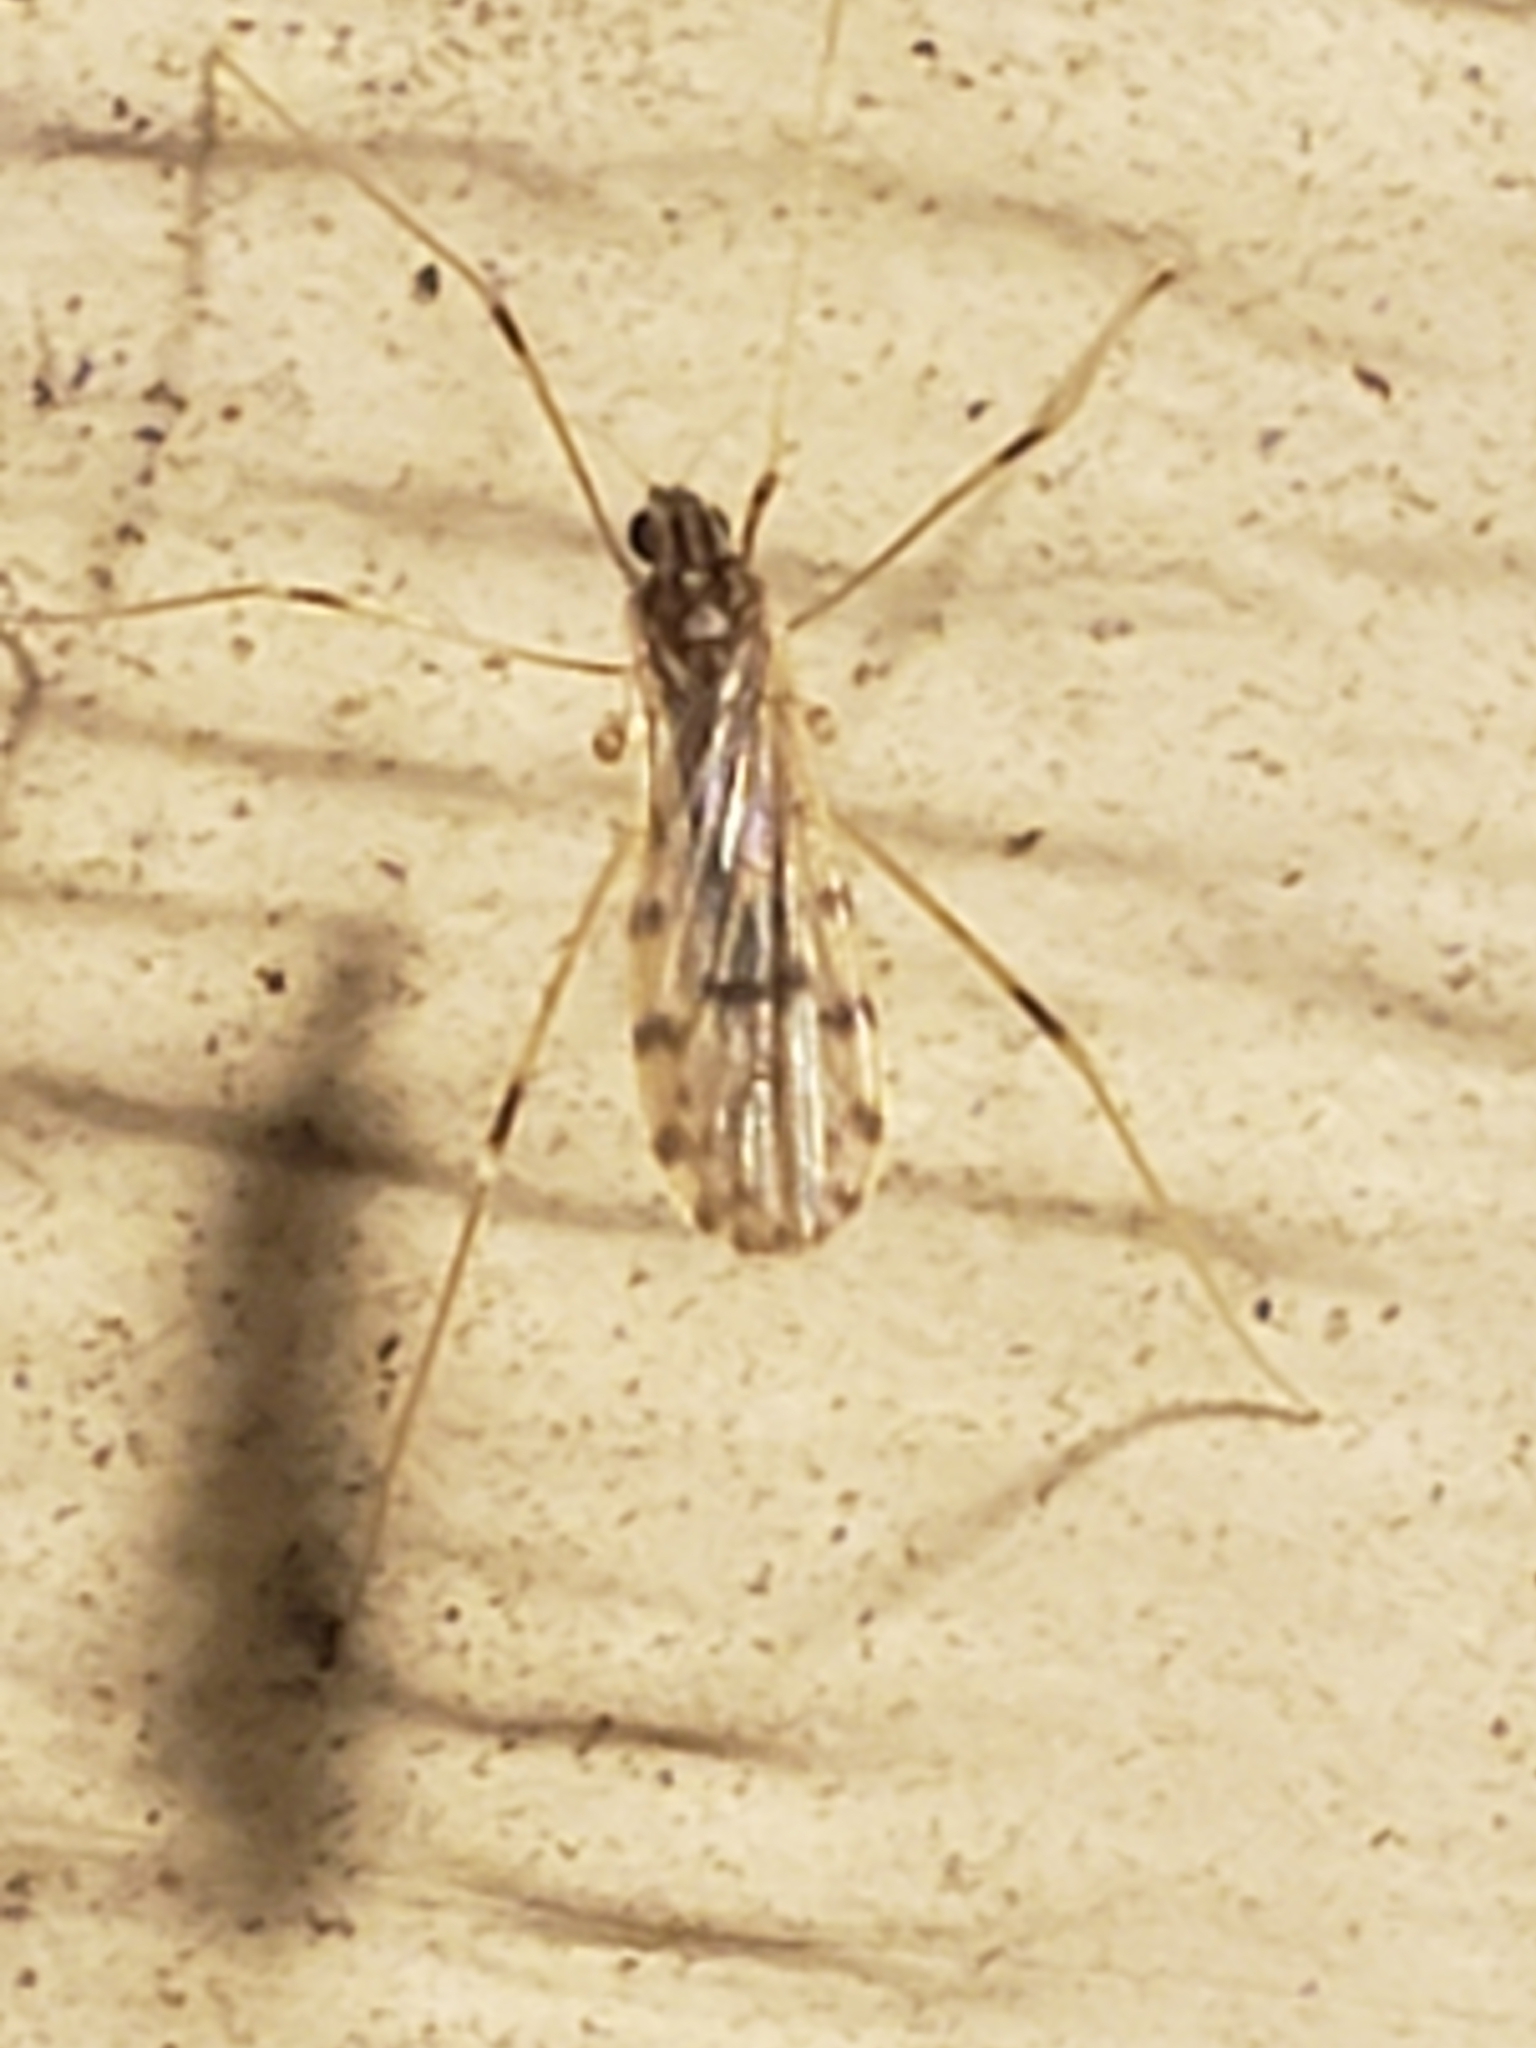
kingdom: Animalia
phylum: Arthropoda
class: Insecta
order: Diptera
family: Limoniidae
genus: Erioptera
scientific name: Erioptera parva
